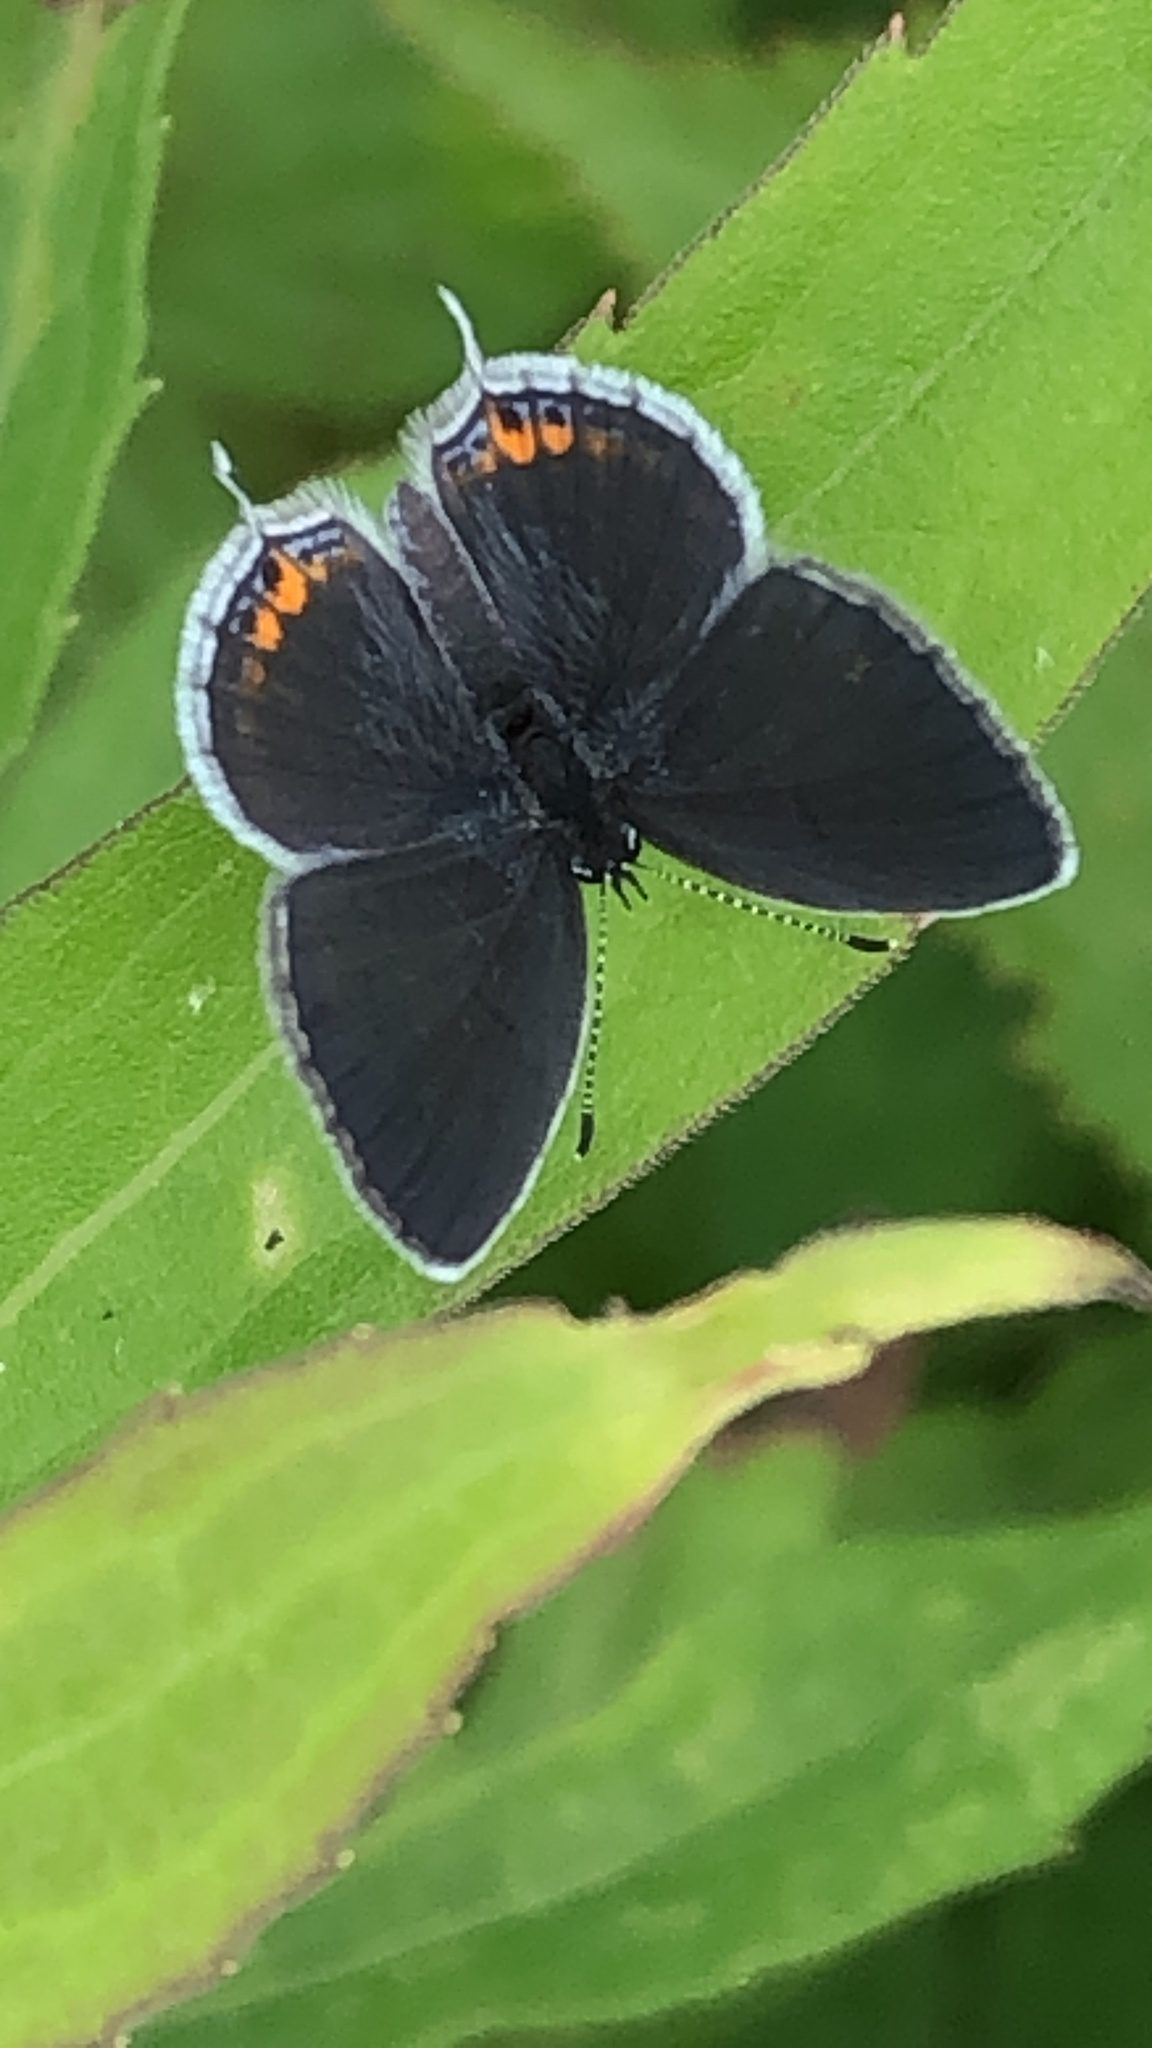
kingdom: Animalia
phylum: Arthropoda
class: Insecta
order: Lepidoptera
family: Lycaenidae
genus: Elkalyce
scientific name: Elkalyce comyntas
